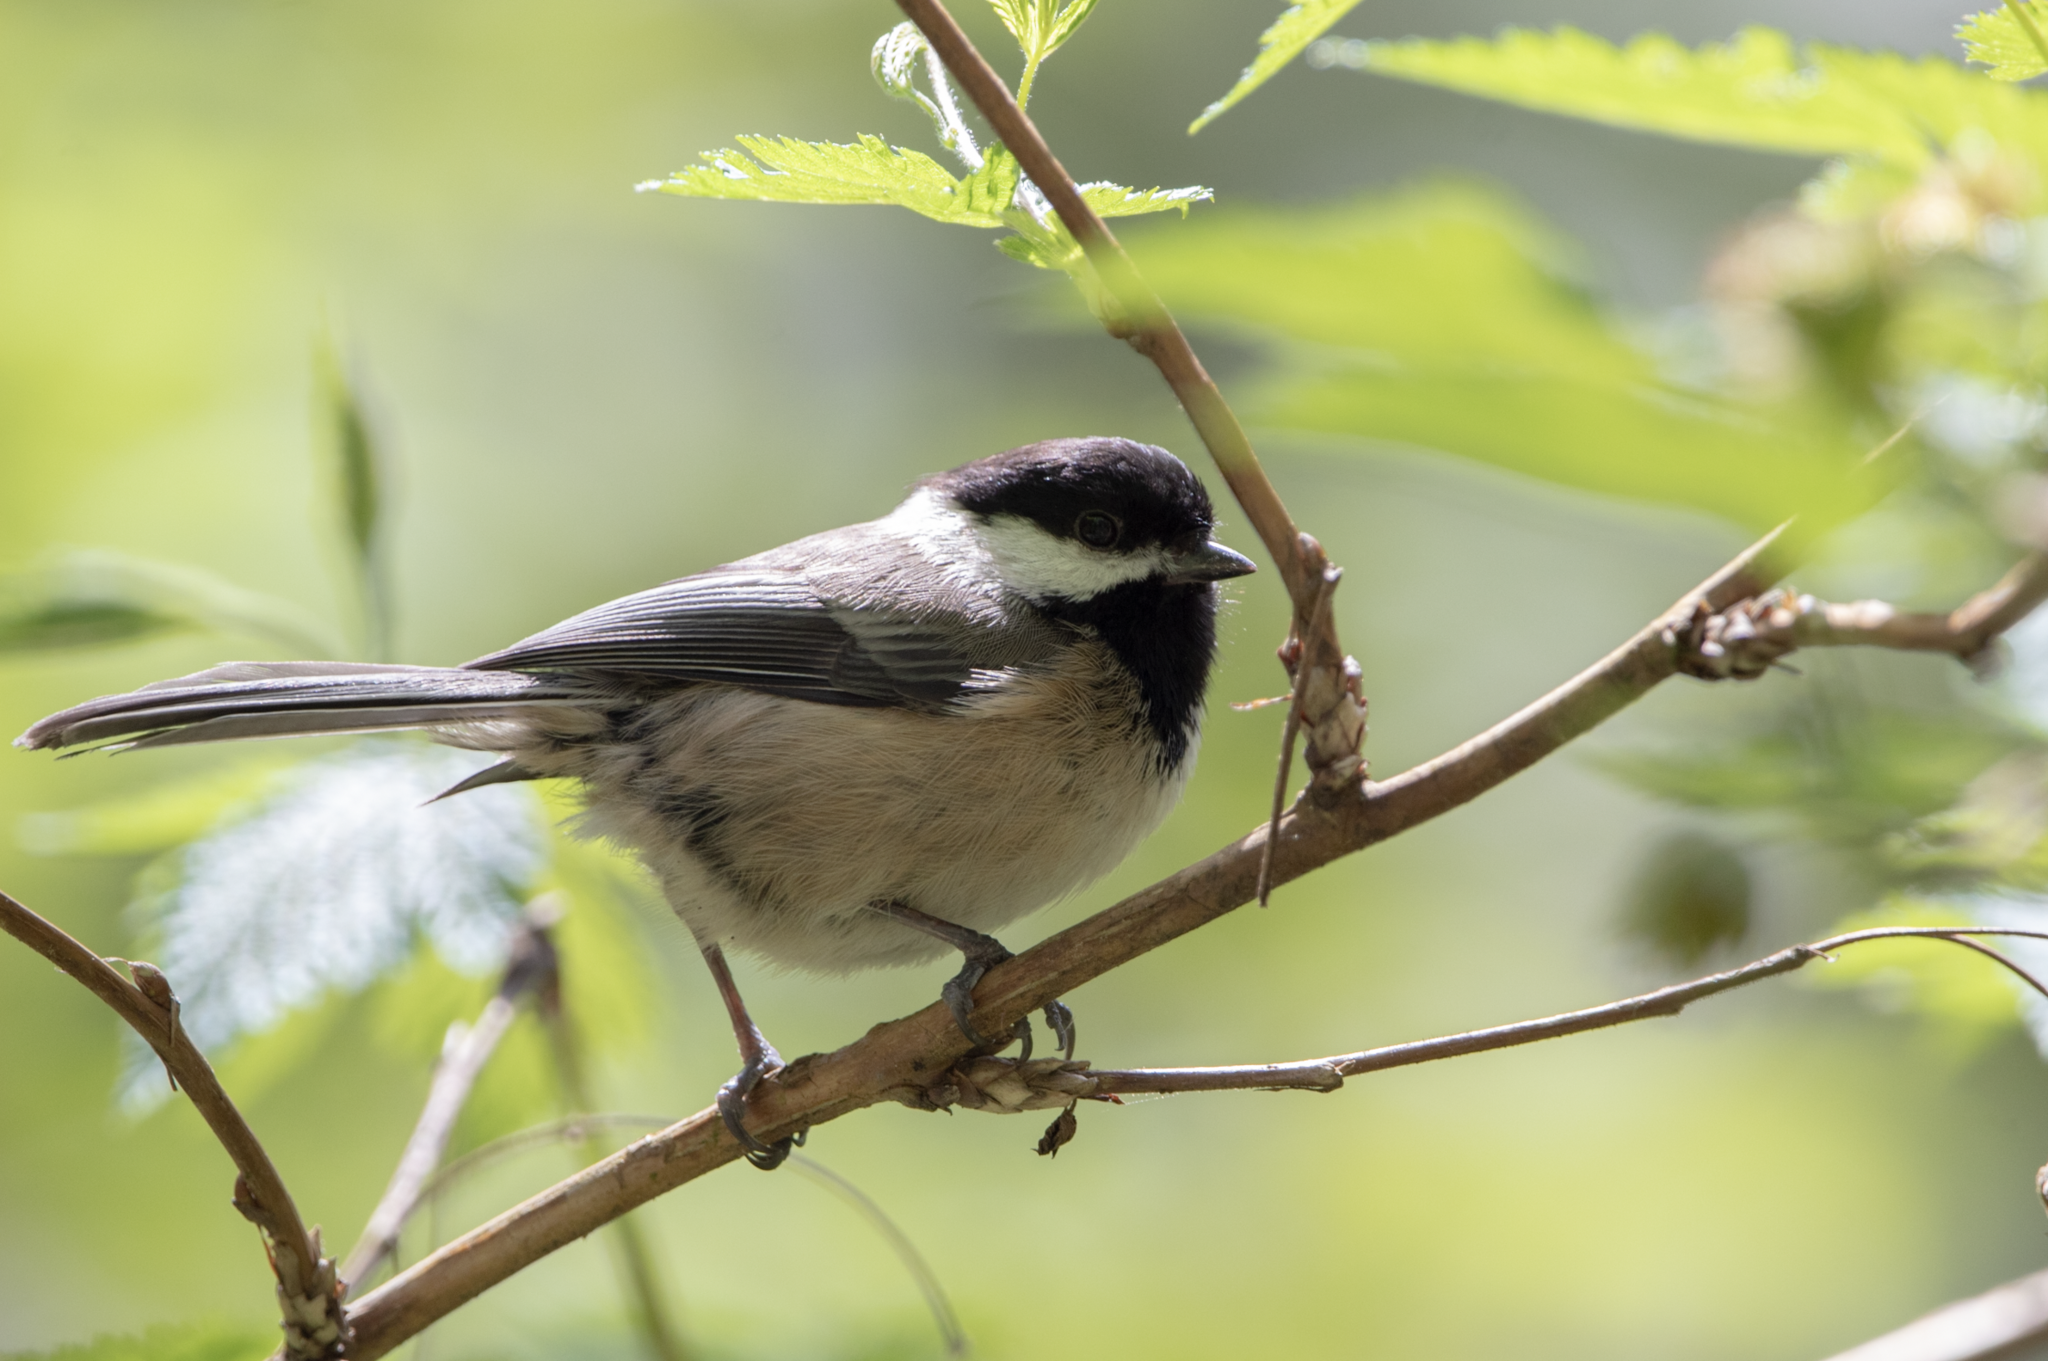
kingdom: Animalia
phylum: Chordata
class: Aves
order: Passeriformes
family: Paridae
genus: Poecile
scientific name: Poecile atricapillus
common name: Black-capped chickadee
